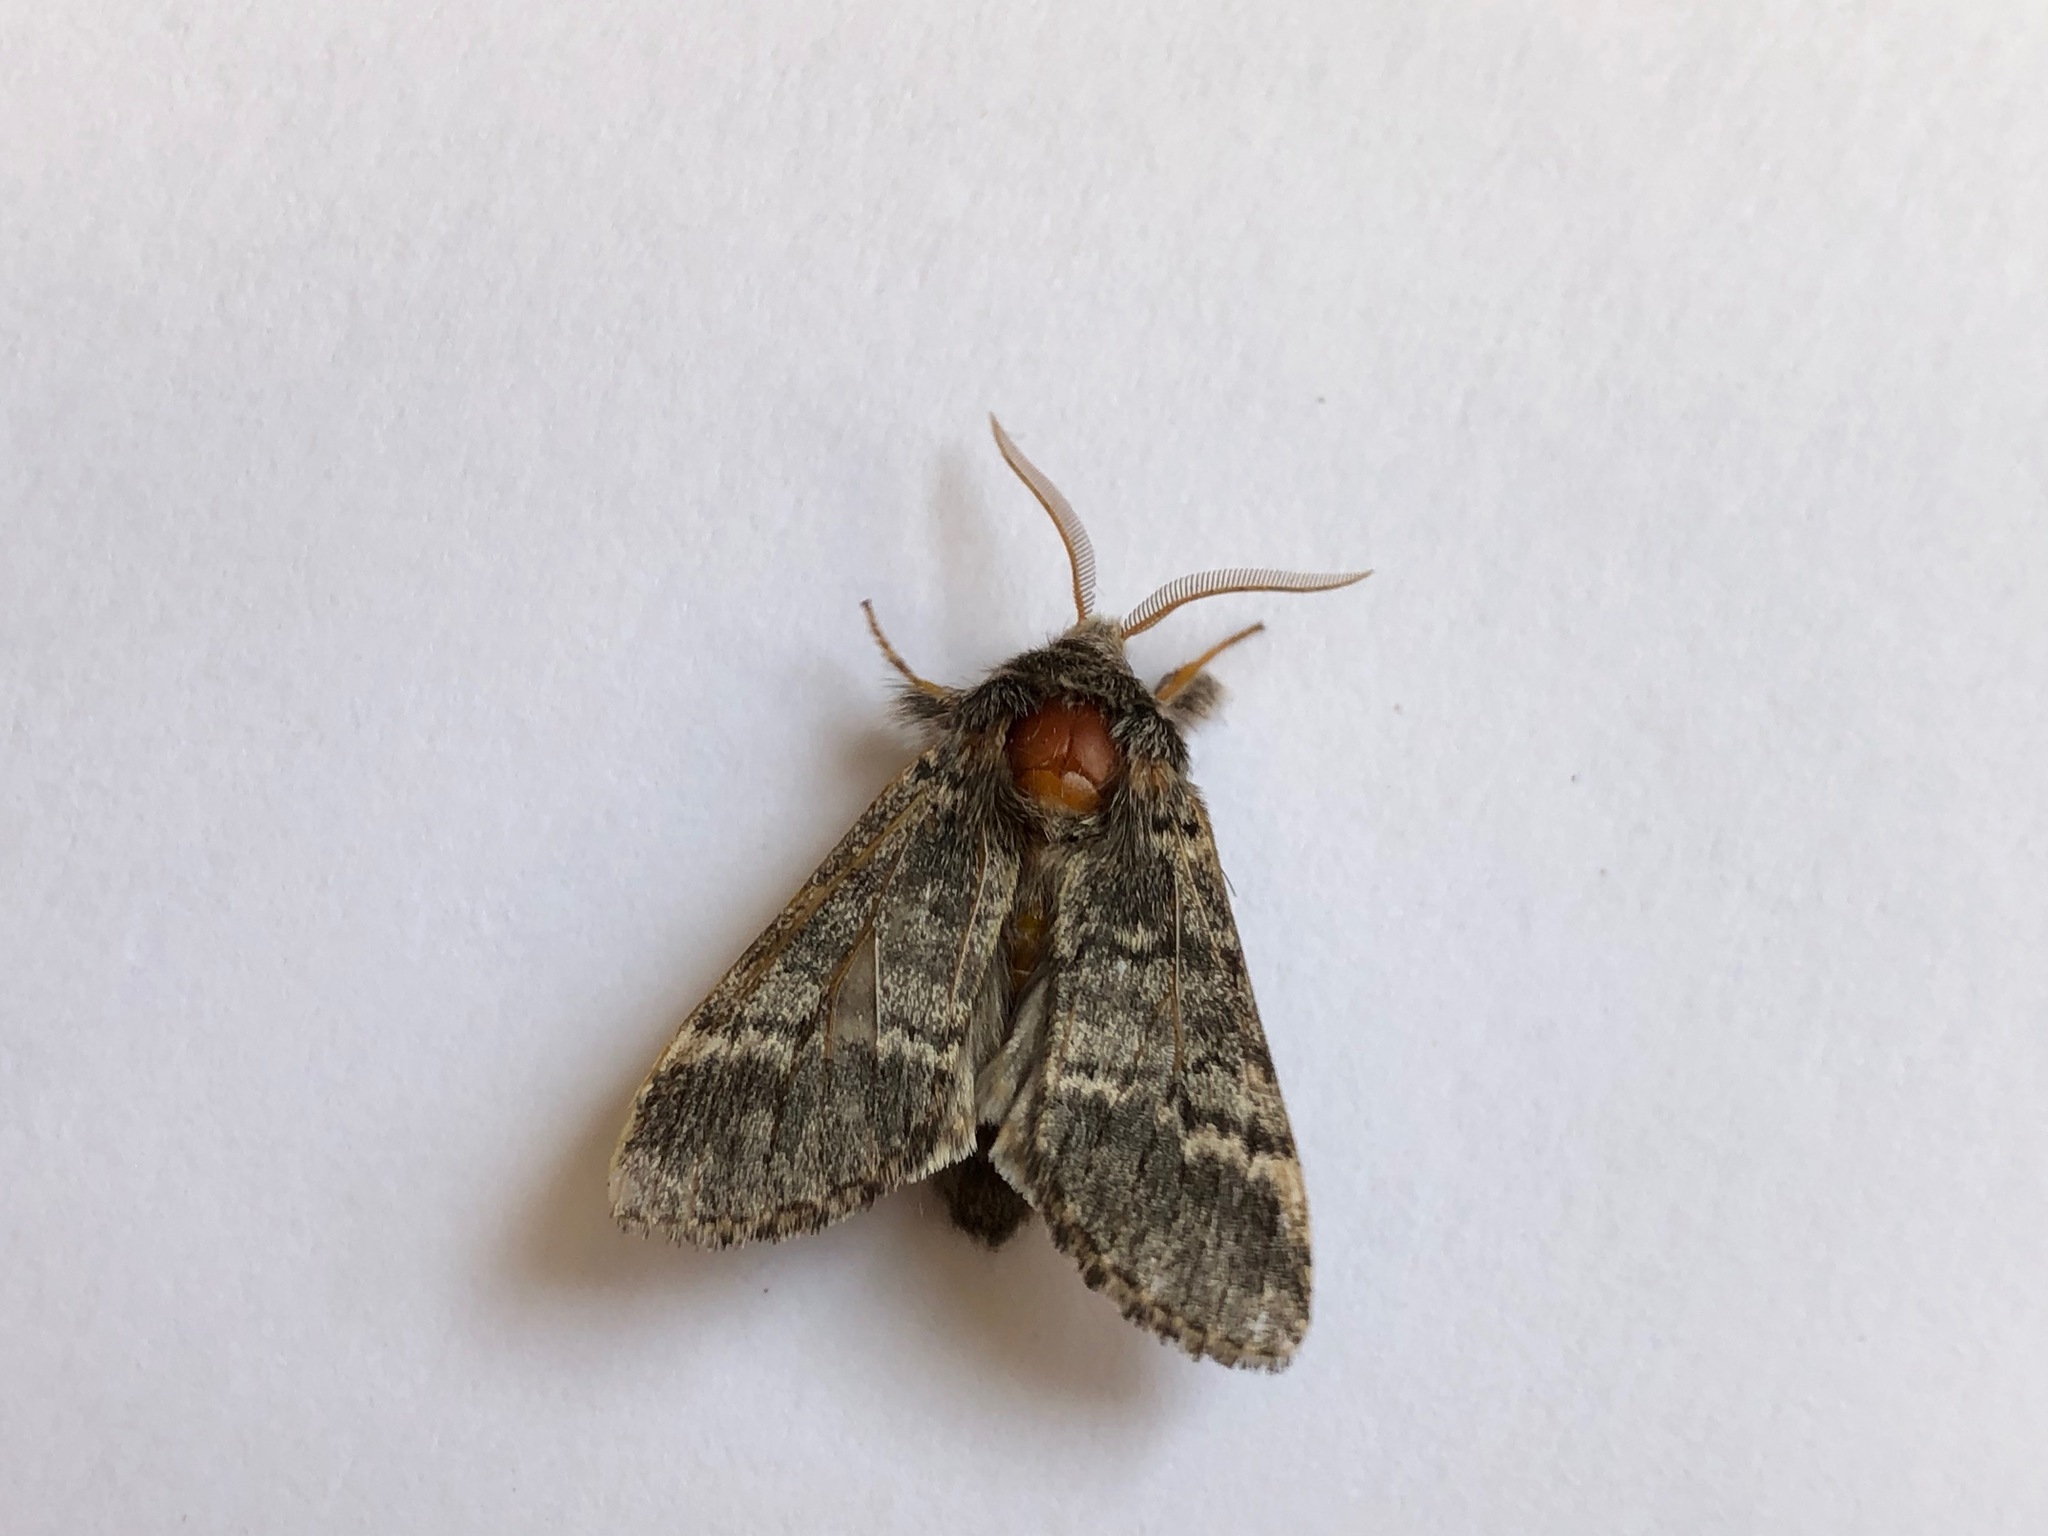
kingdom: Animalia
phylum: Arthropoda
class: Insecta
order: Lepidoptera
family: Notodontidae
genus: Drymonia
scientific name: Drymonia ruficornis
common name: Lunar marbled brown
